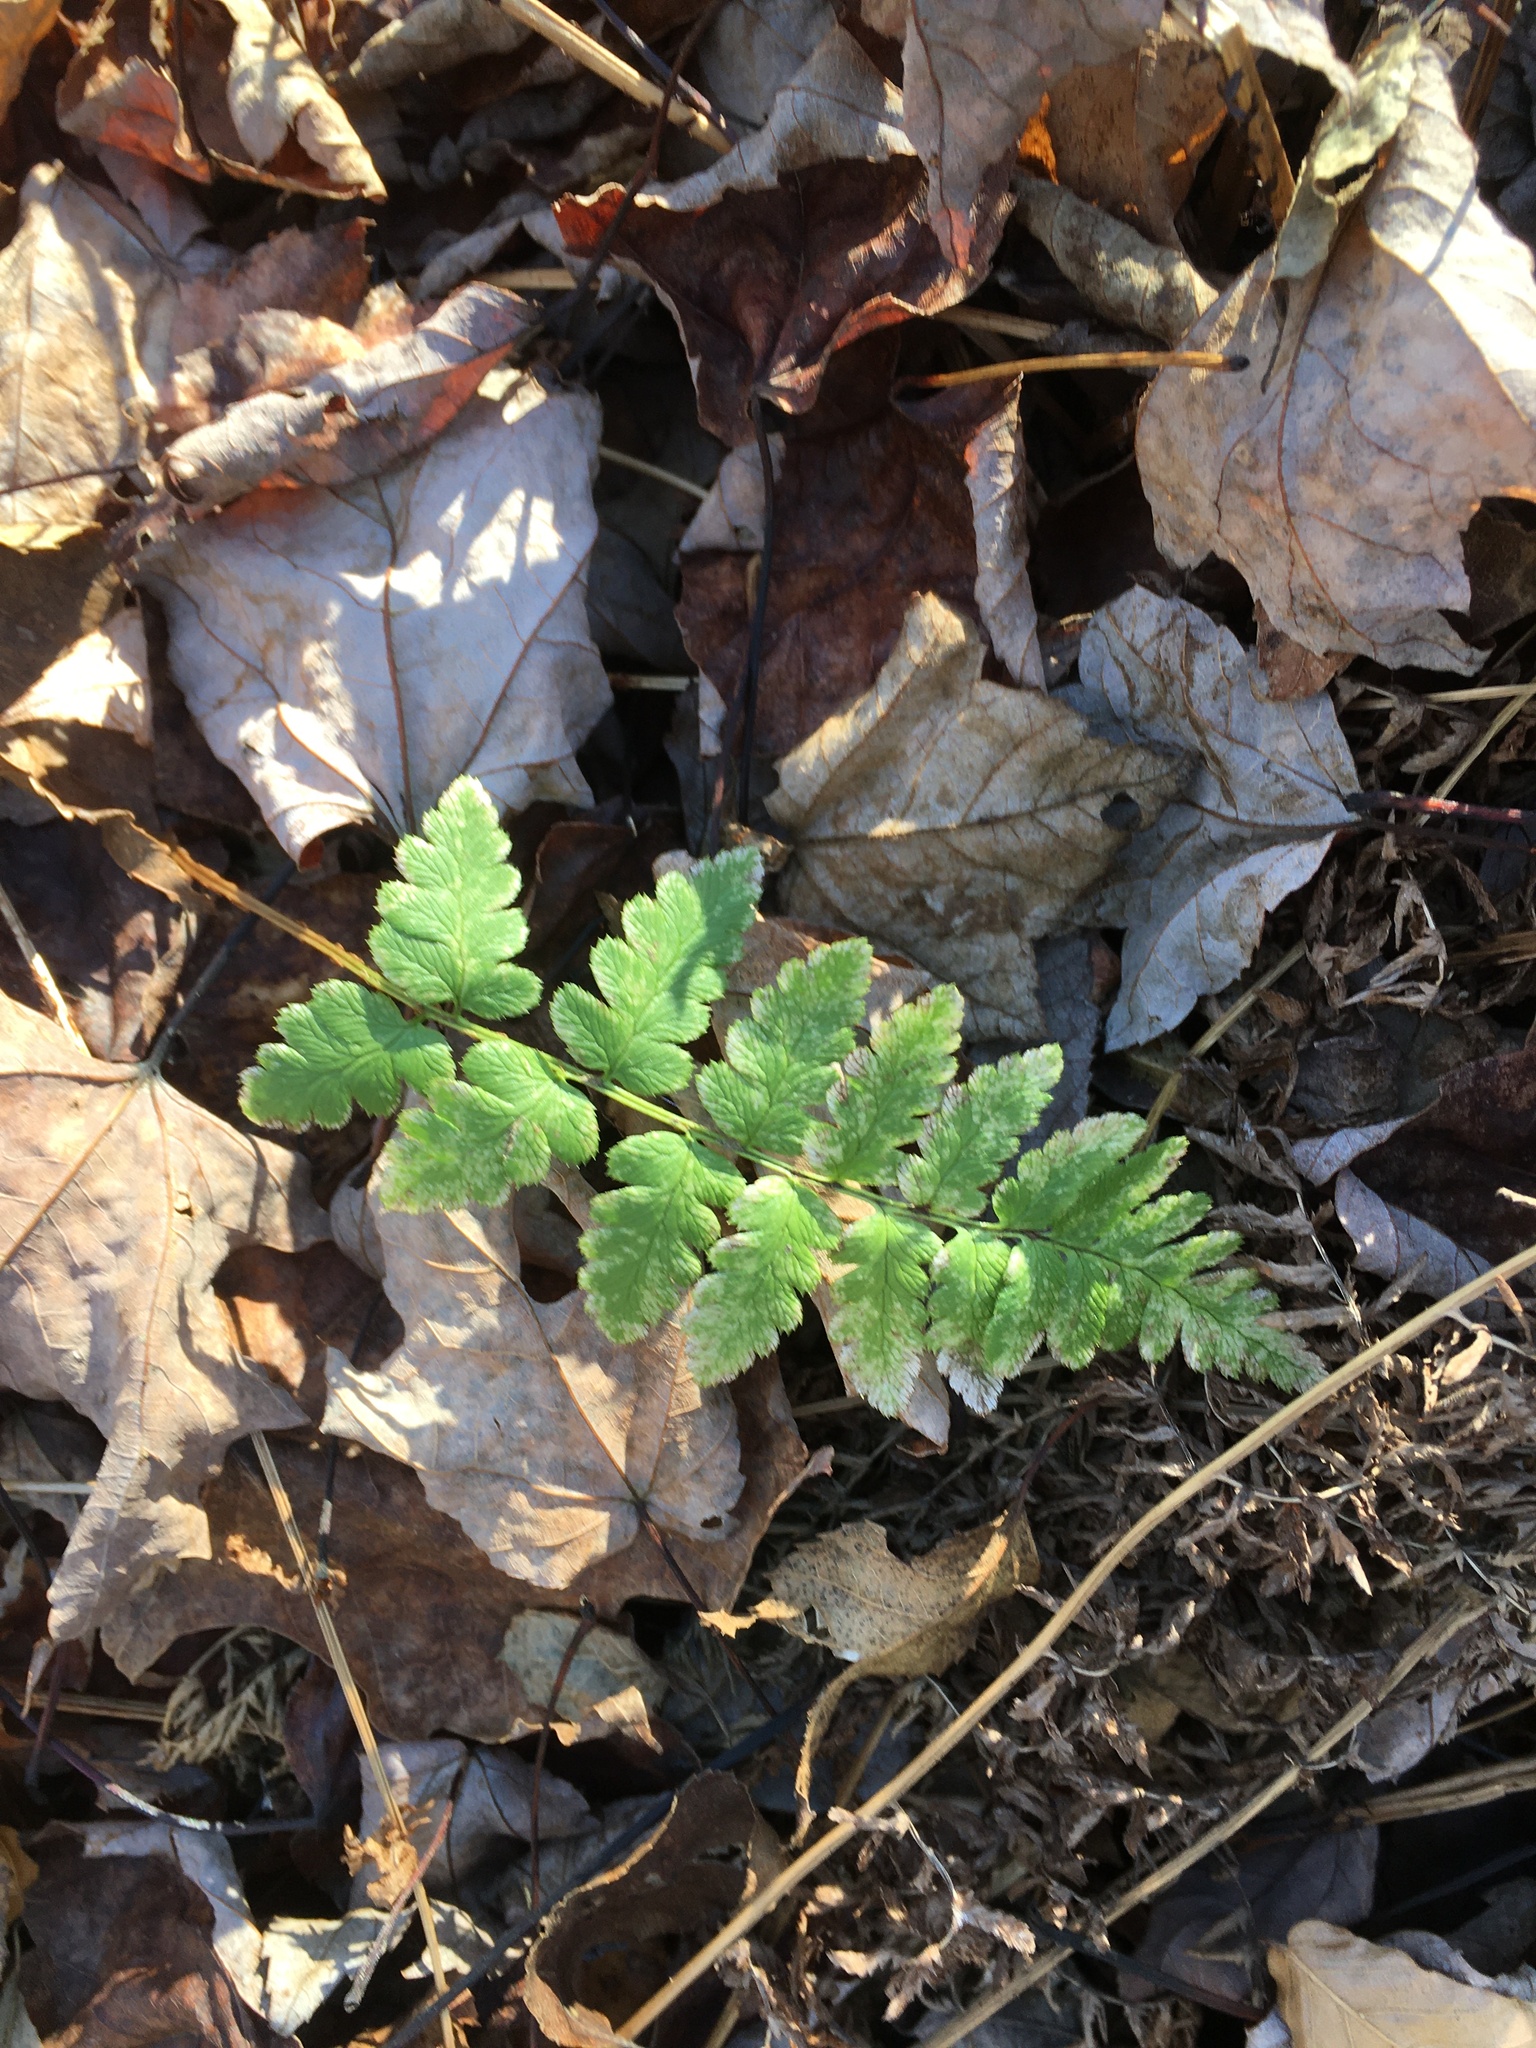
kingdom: Plantae
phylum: Tracheophyta
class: Polypodiopsida
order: Polypodiales
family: Dryopteridaceae
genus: Dryopteris
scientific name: Dryopteris cristata
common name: Crested wood fern
